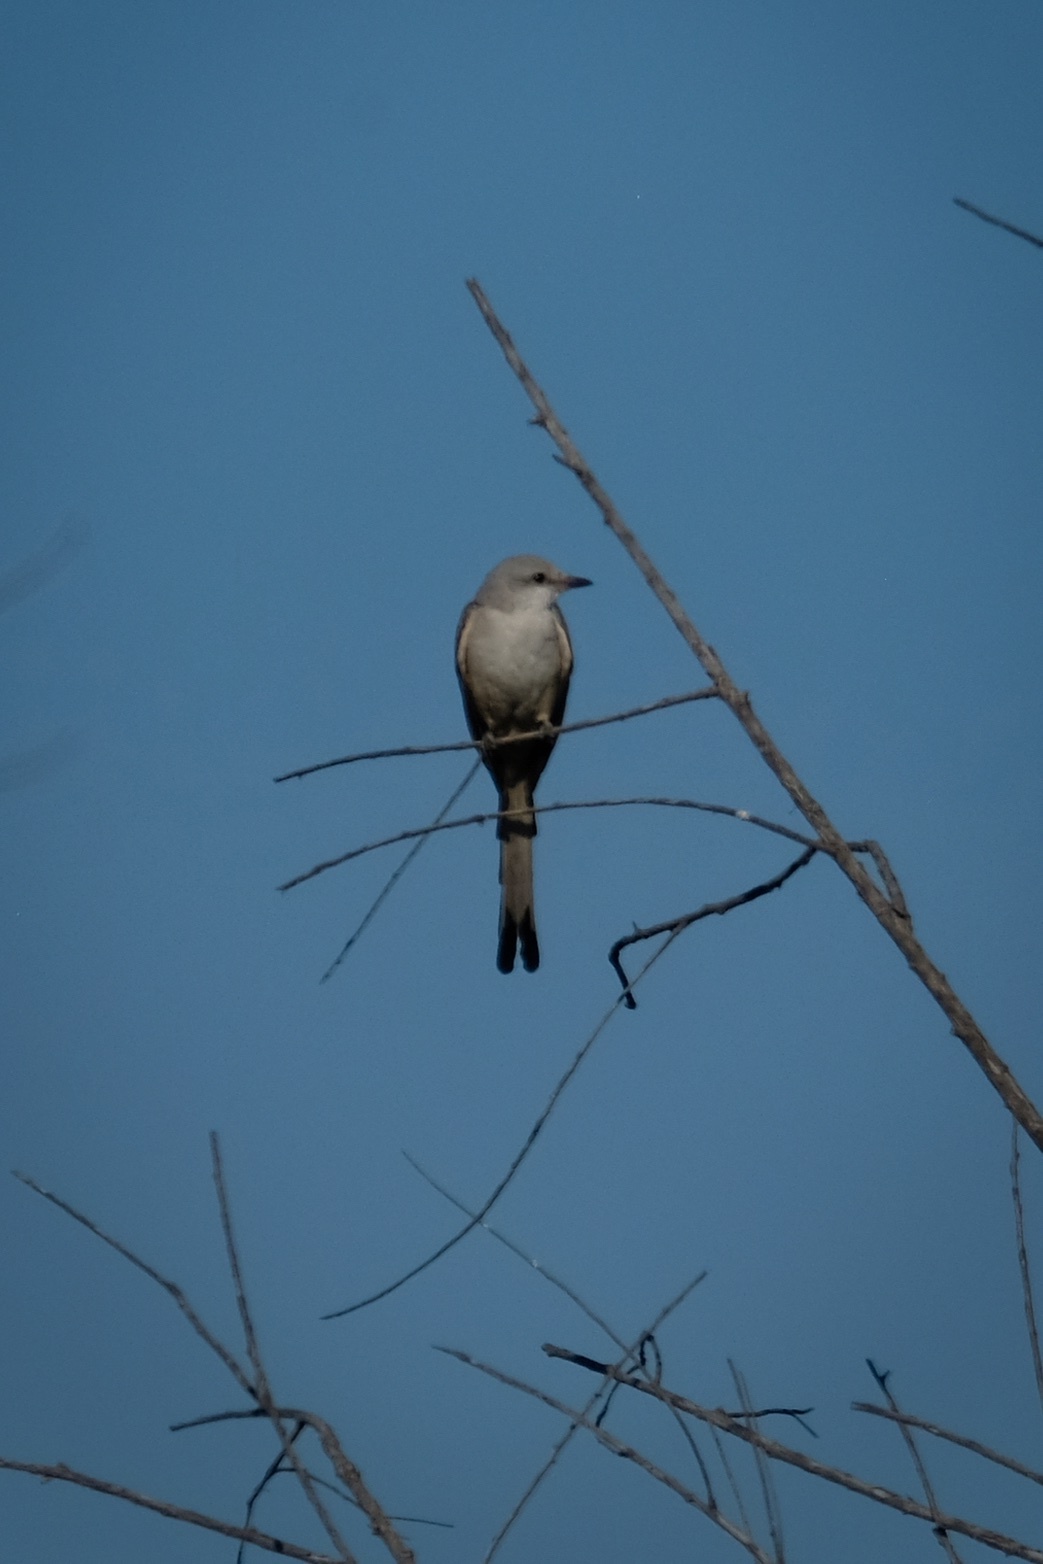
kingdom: Animalia
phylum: Chordata
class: Aves
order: Passeriformes
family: Tyrannidae
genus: Tyrannus
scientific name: Tyrannus forficatus
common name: Scissor-tailed flycatcher
